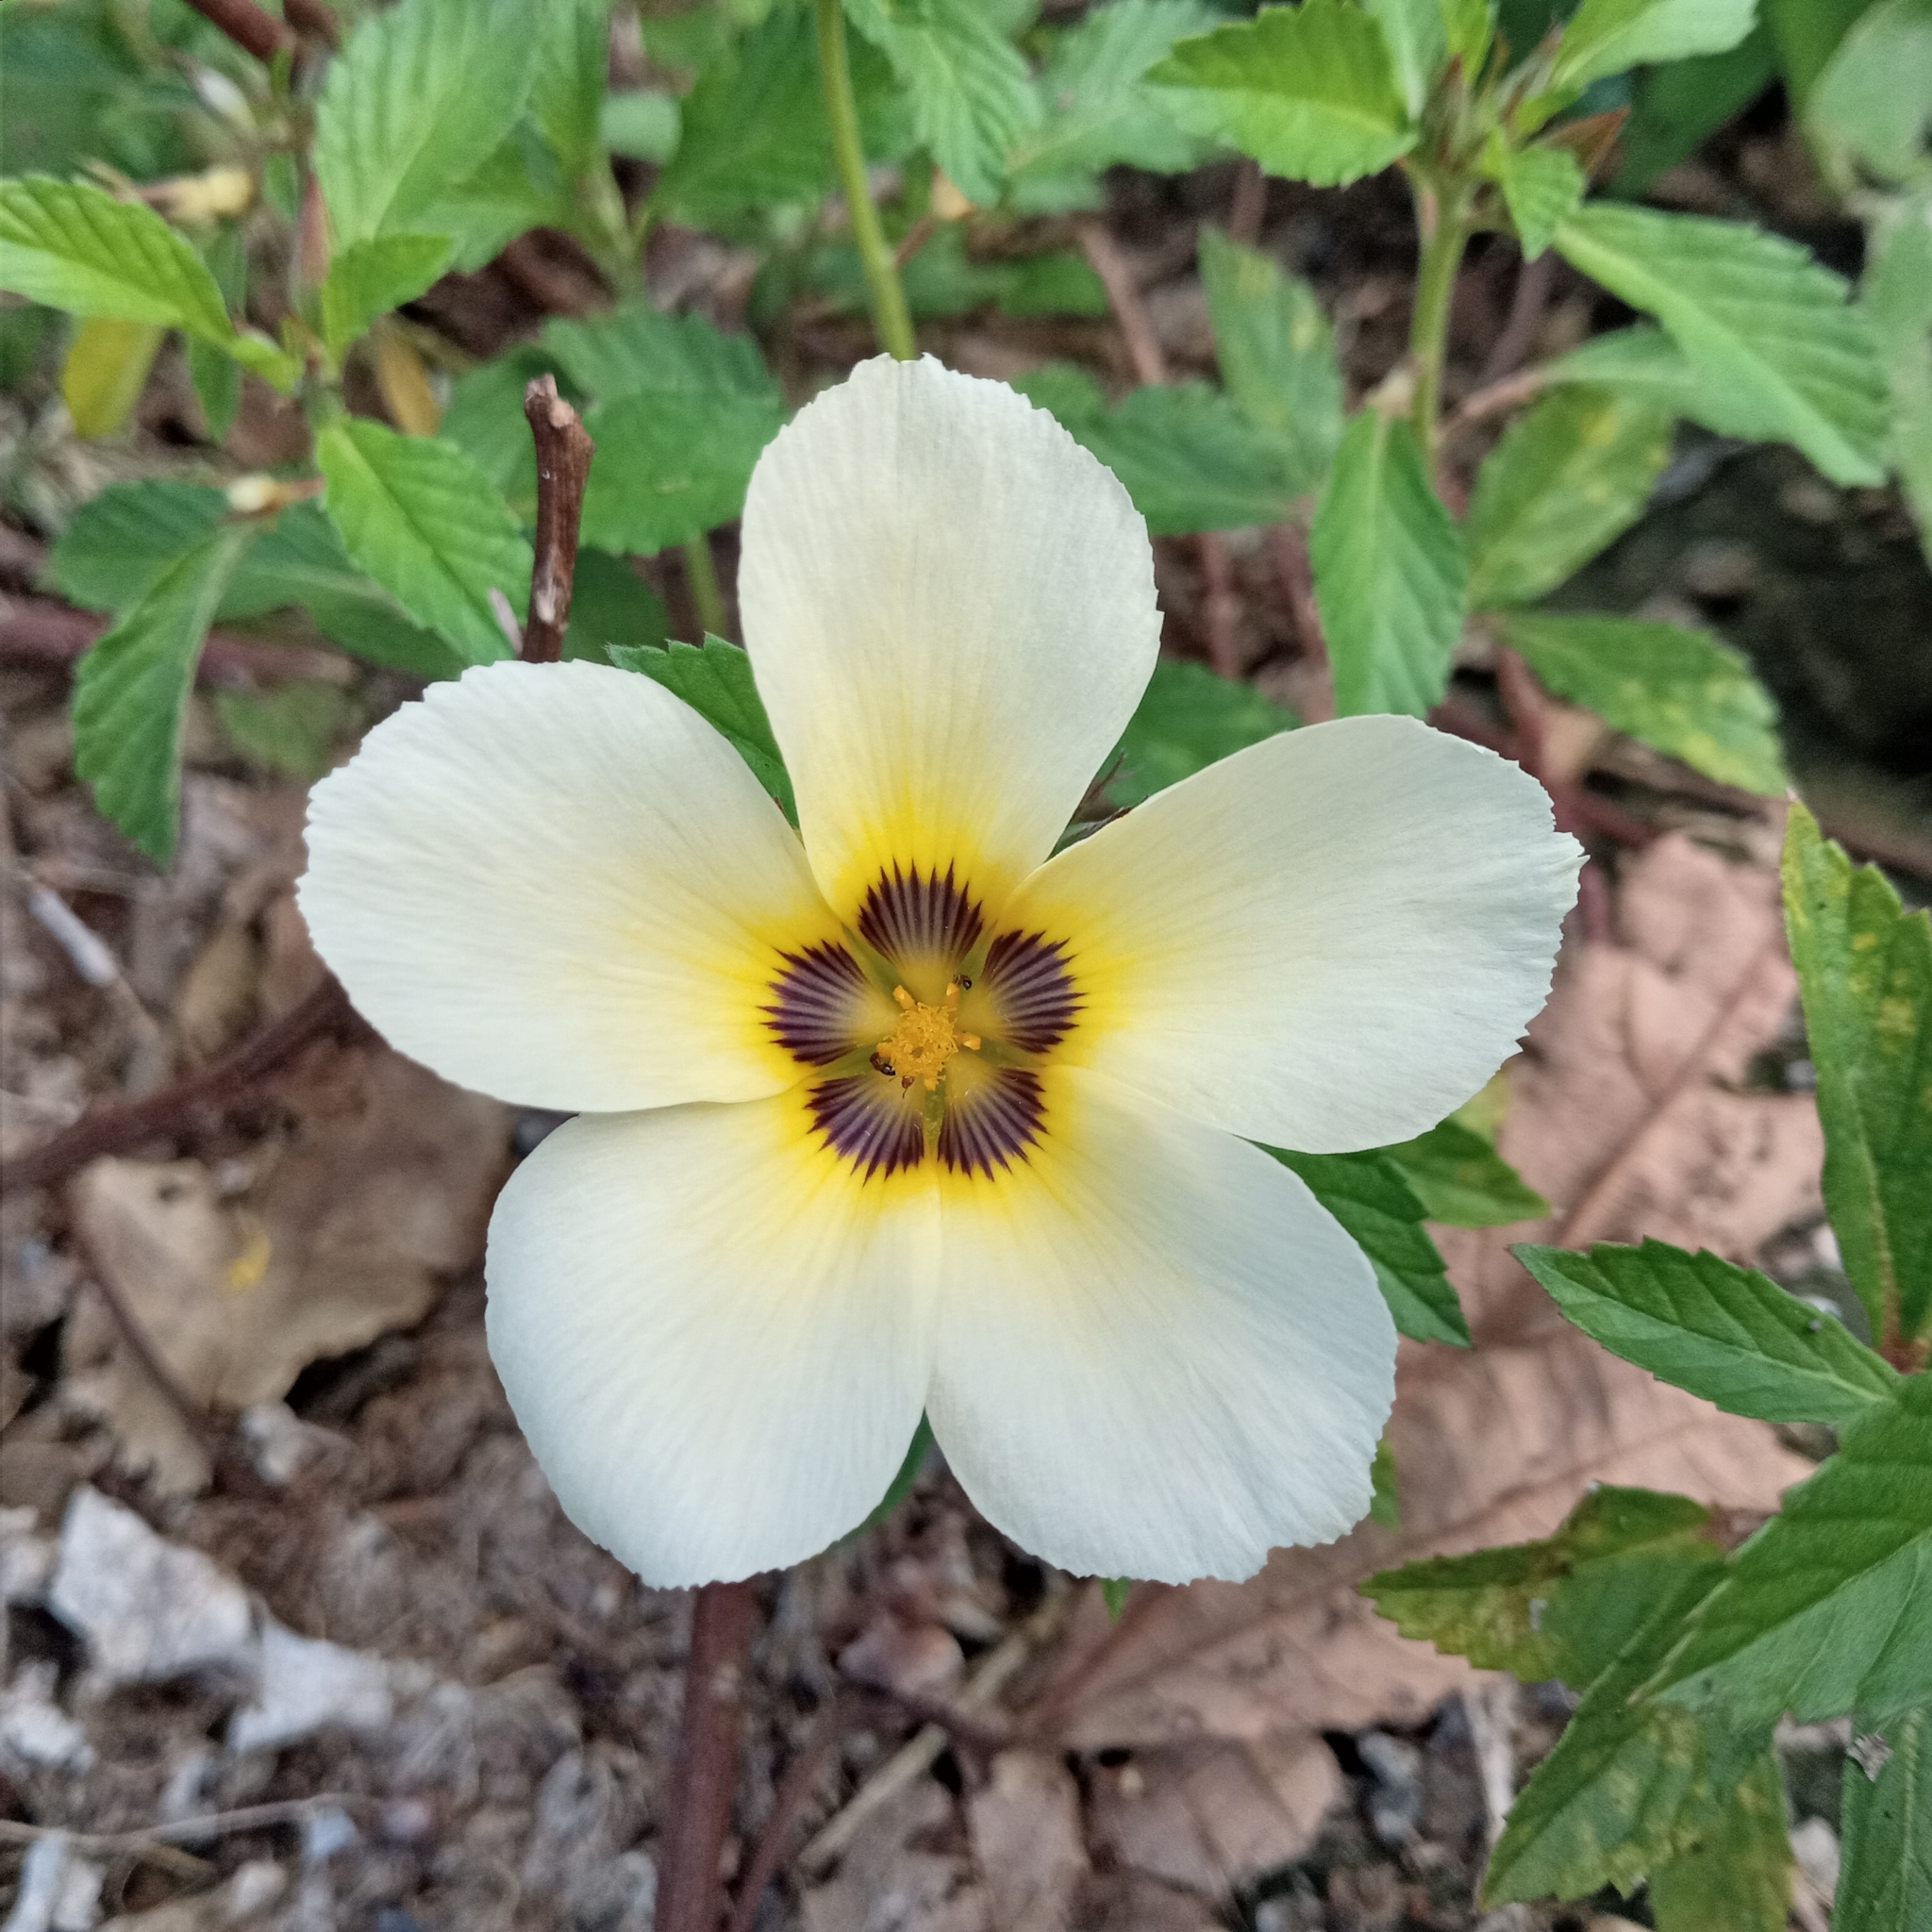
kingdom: Plantae
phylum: Tracheophyta
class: Magnoliopsida
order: Malpighiales
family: Turneraceae
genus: Turnera
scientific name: Turnera subulata
